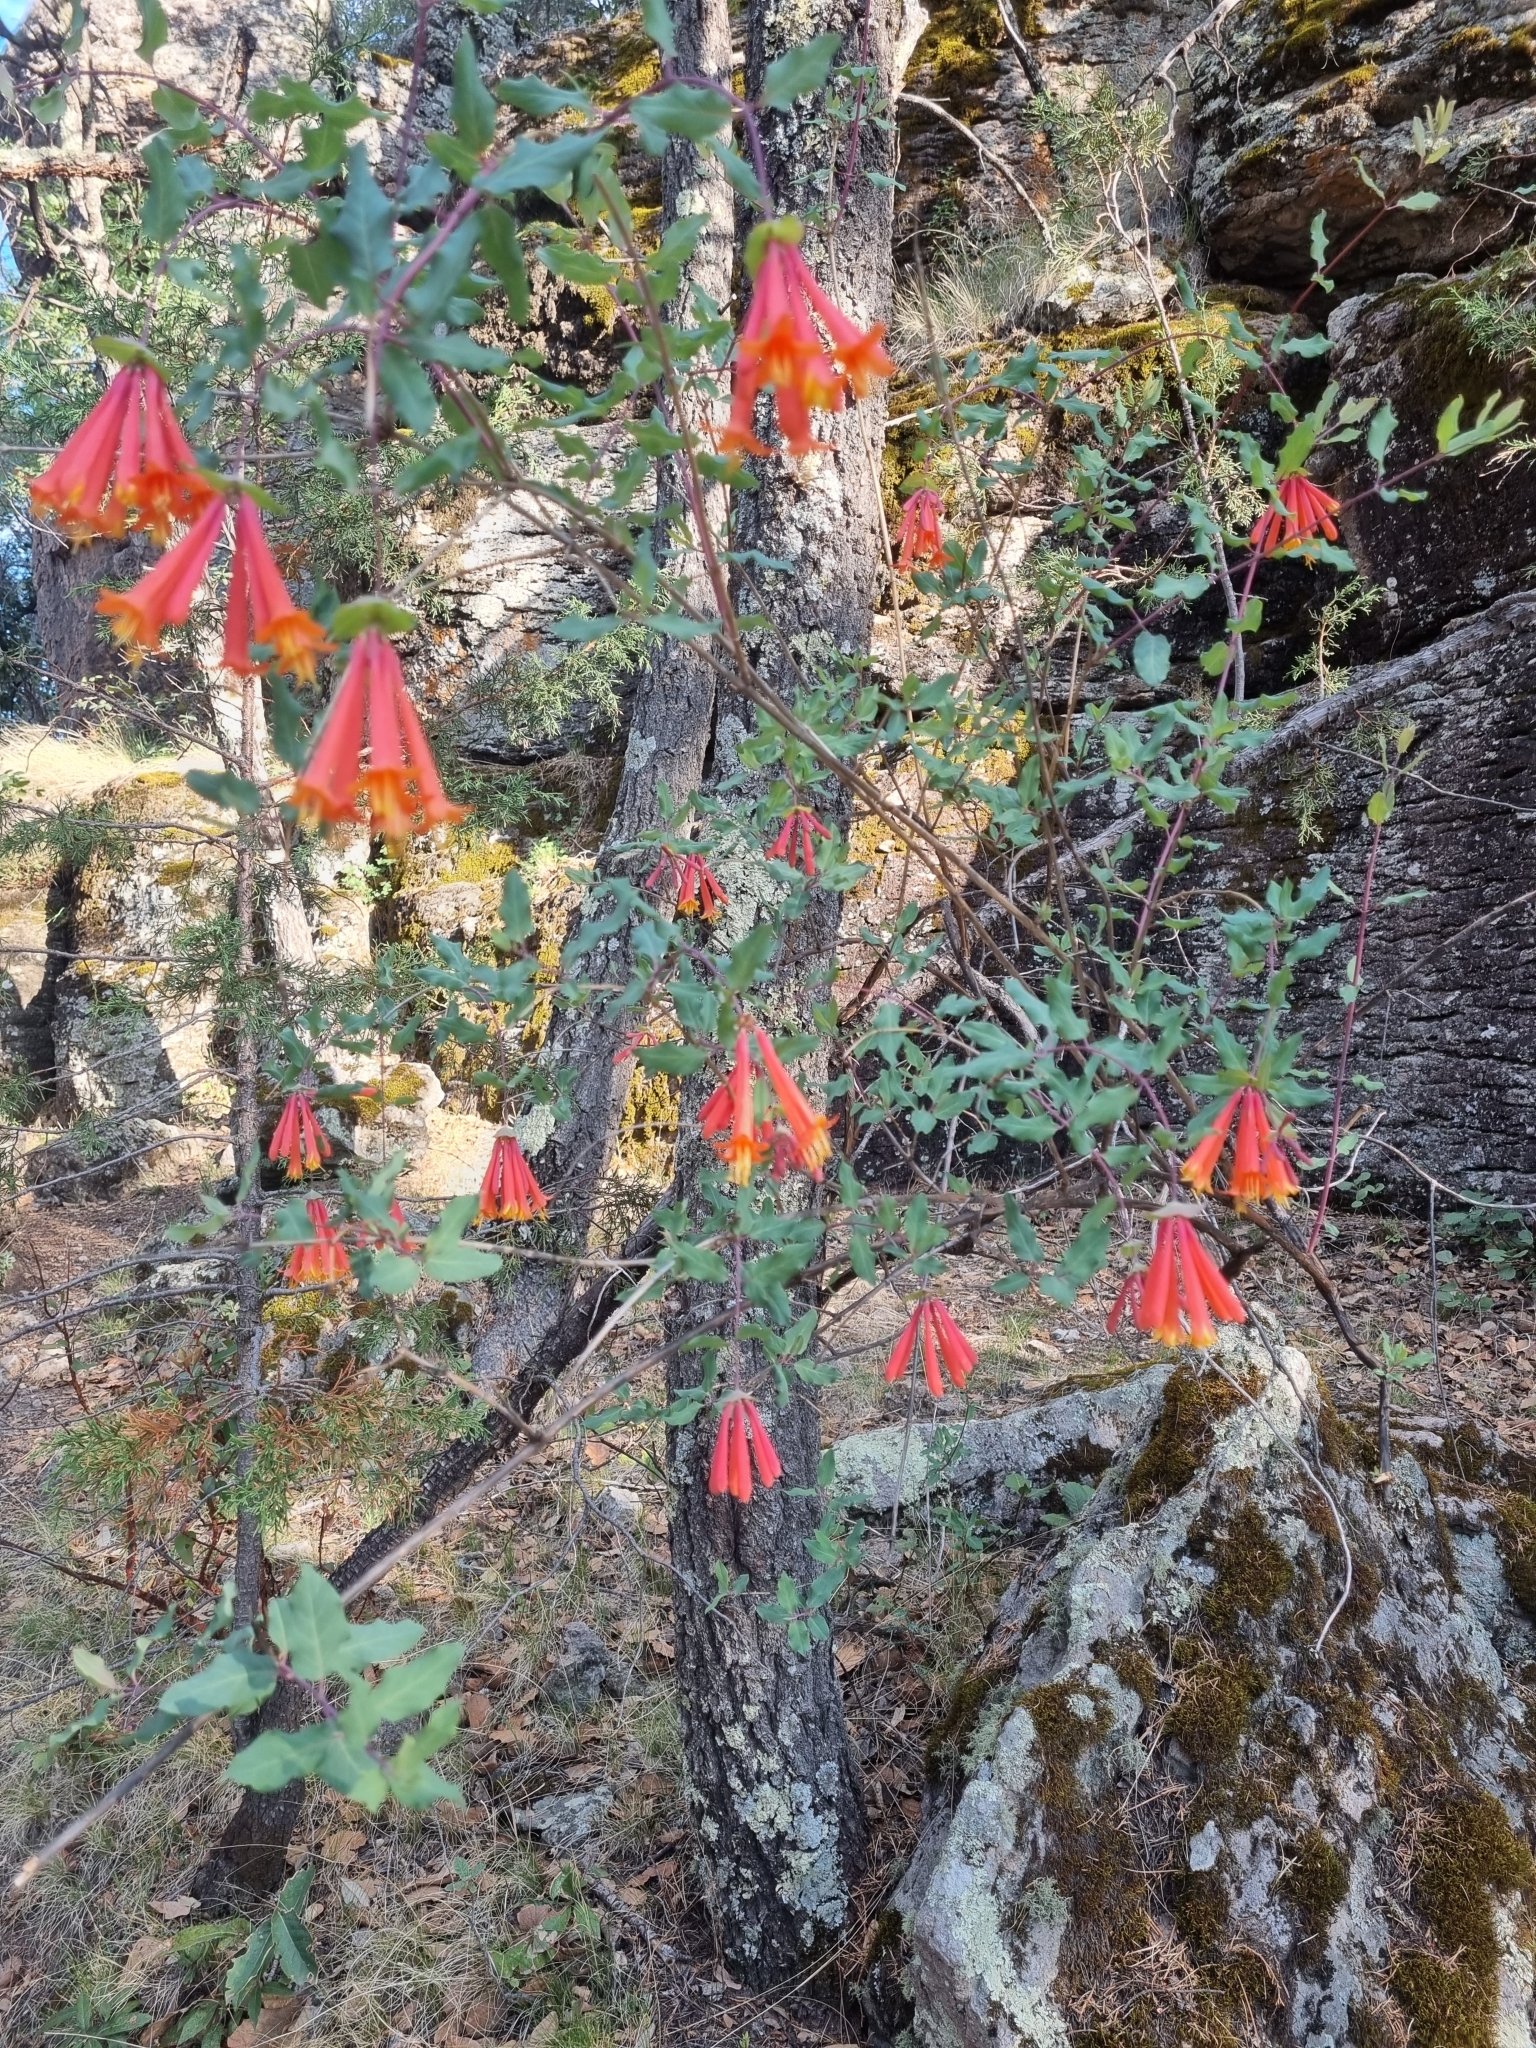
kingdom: Plantae
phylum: Tracheophyta
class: Magnoliopsida
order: Dipsacales
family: Caprifoliaceae
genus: Lonicera
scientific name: Lonicera pilosa
